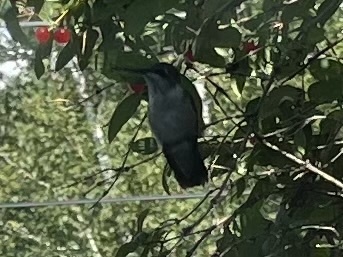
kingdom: Animalia
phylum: Chordata
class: Aves
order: Apodiformes
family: Trochilidae
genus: Archilochus
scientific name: Archilochus colubris
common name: Ruby-throated hummingbird
